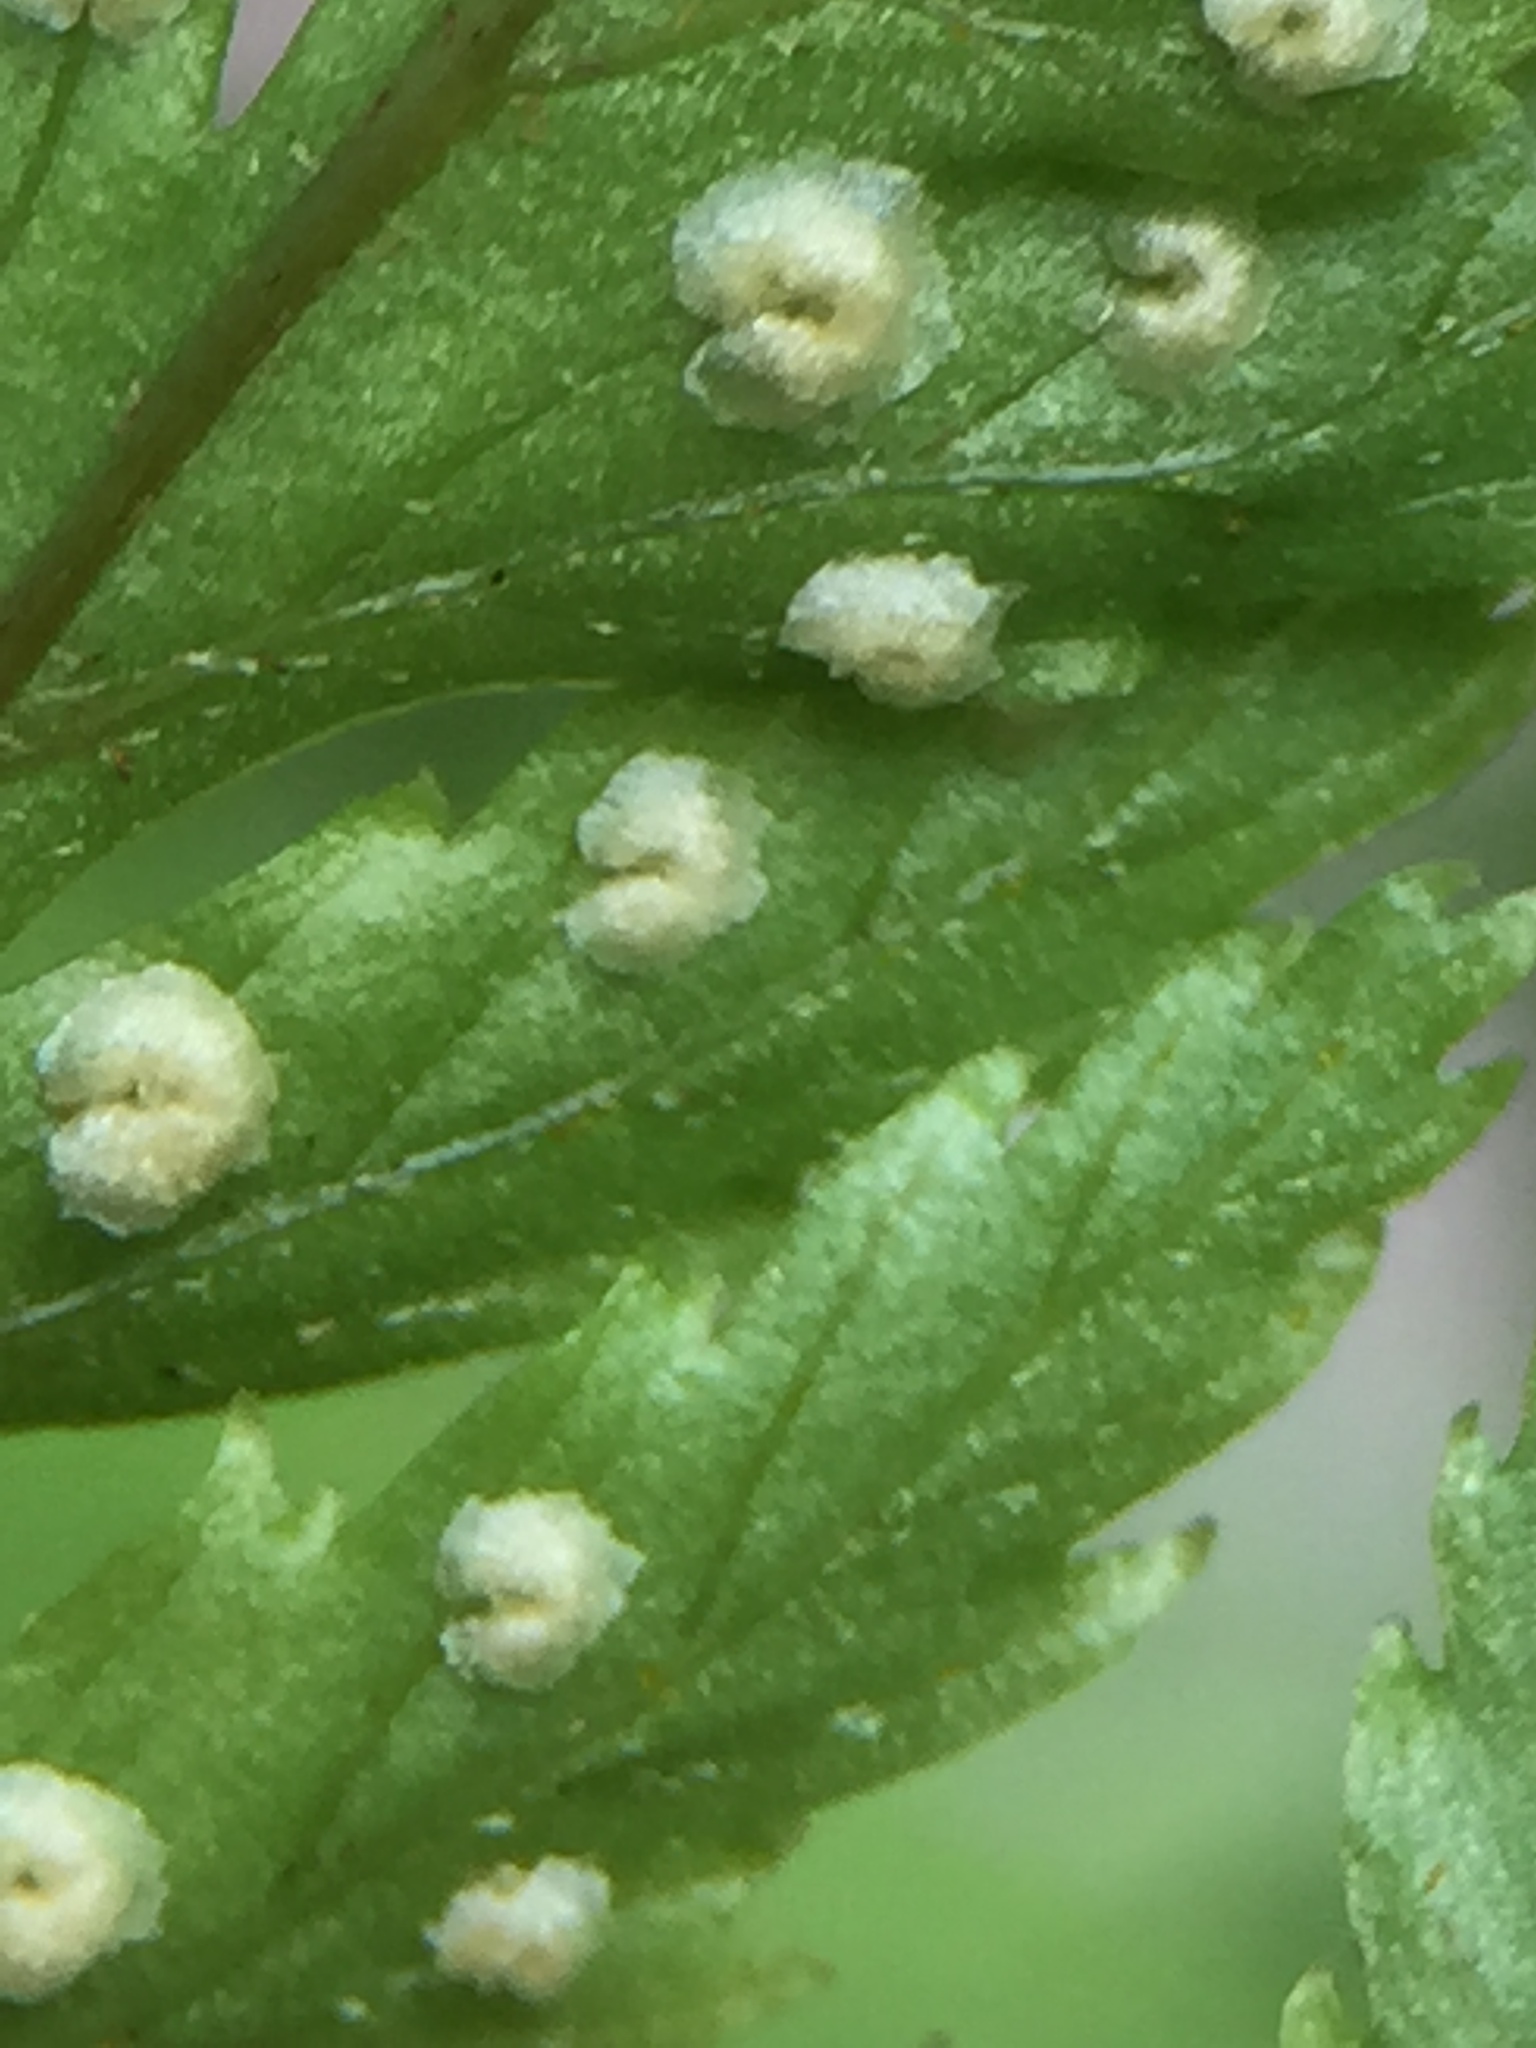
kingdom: Plantae
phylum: Tracheophyta
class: Polypodiopsida
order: Polypodiales
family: Dryopteridaceae
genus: Parapolystichum
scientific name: Parapolystichum glabellum
